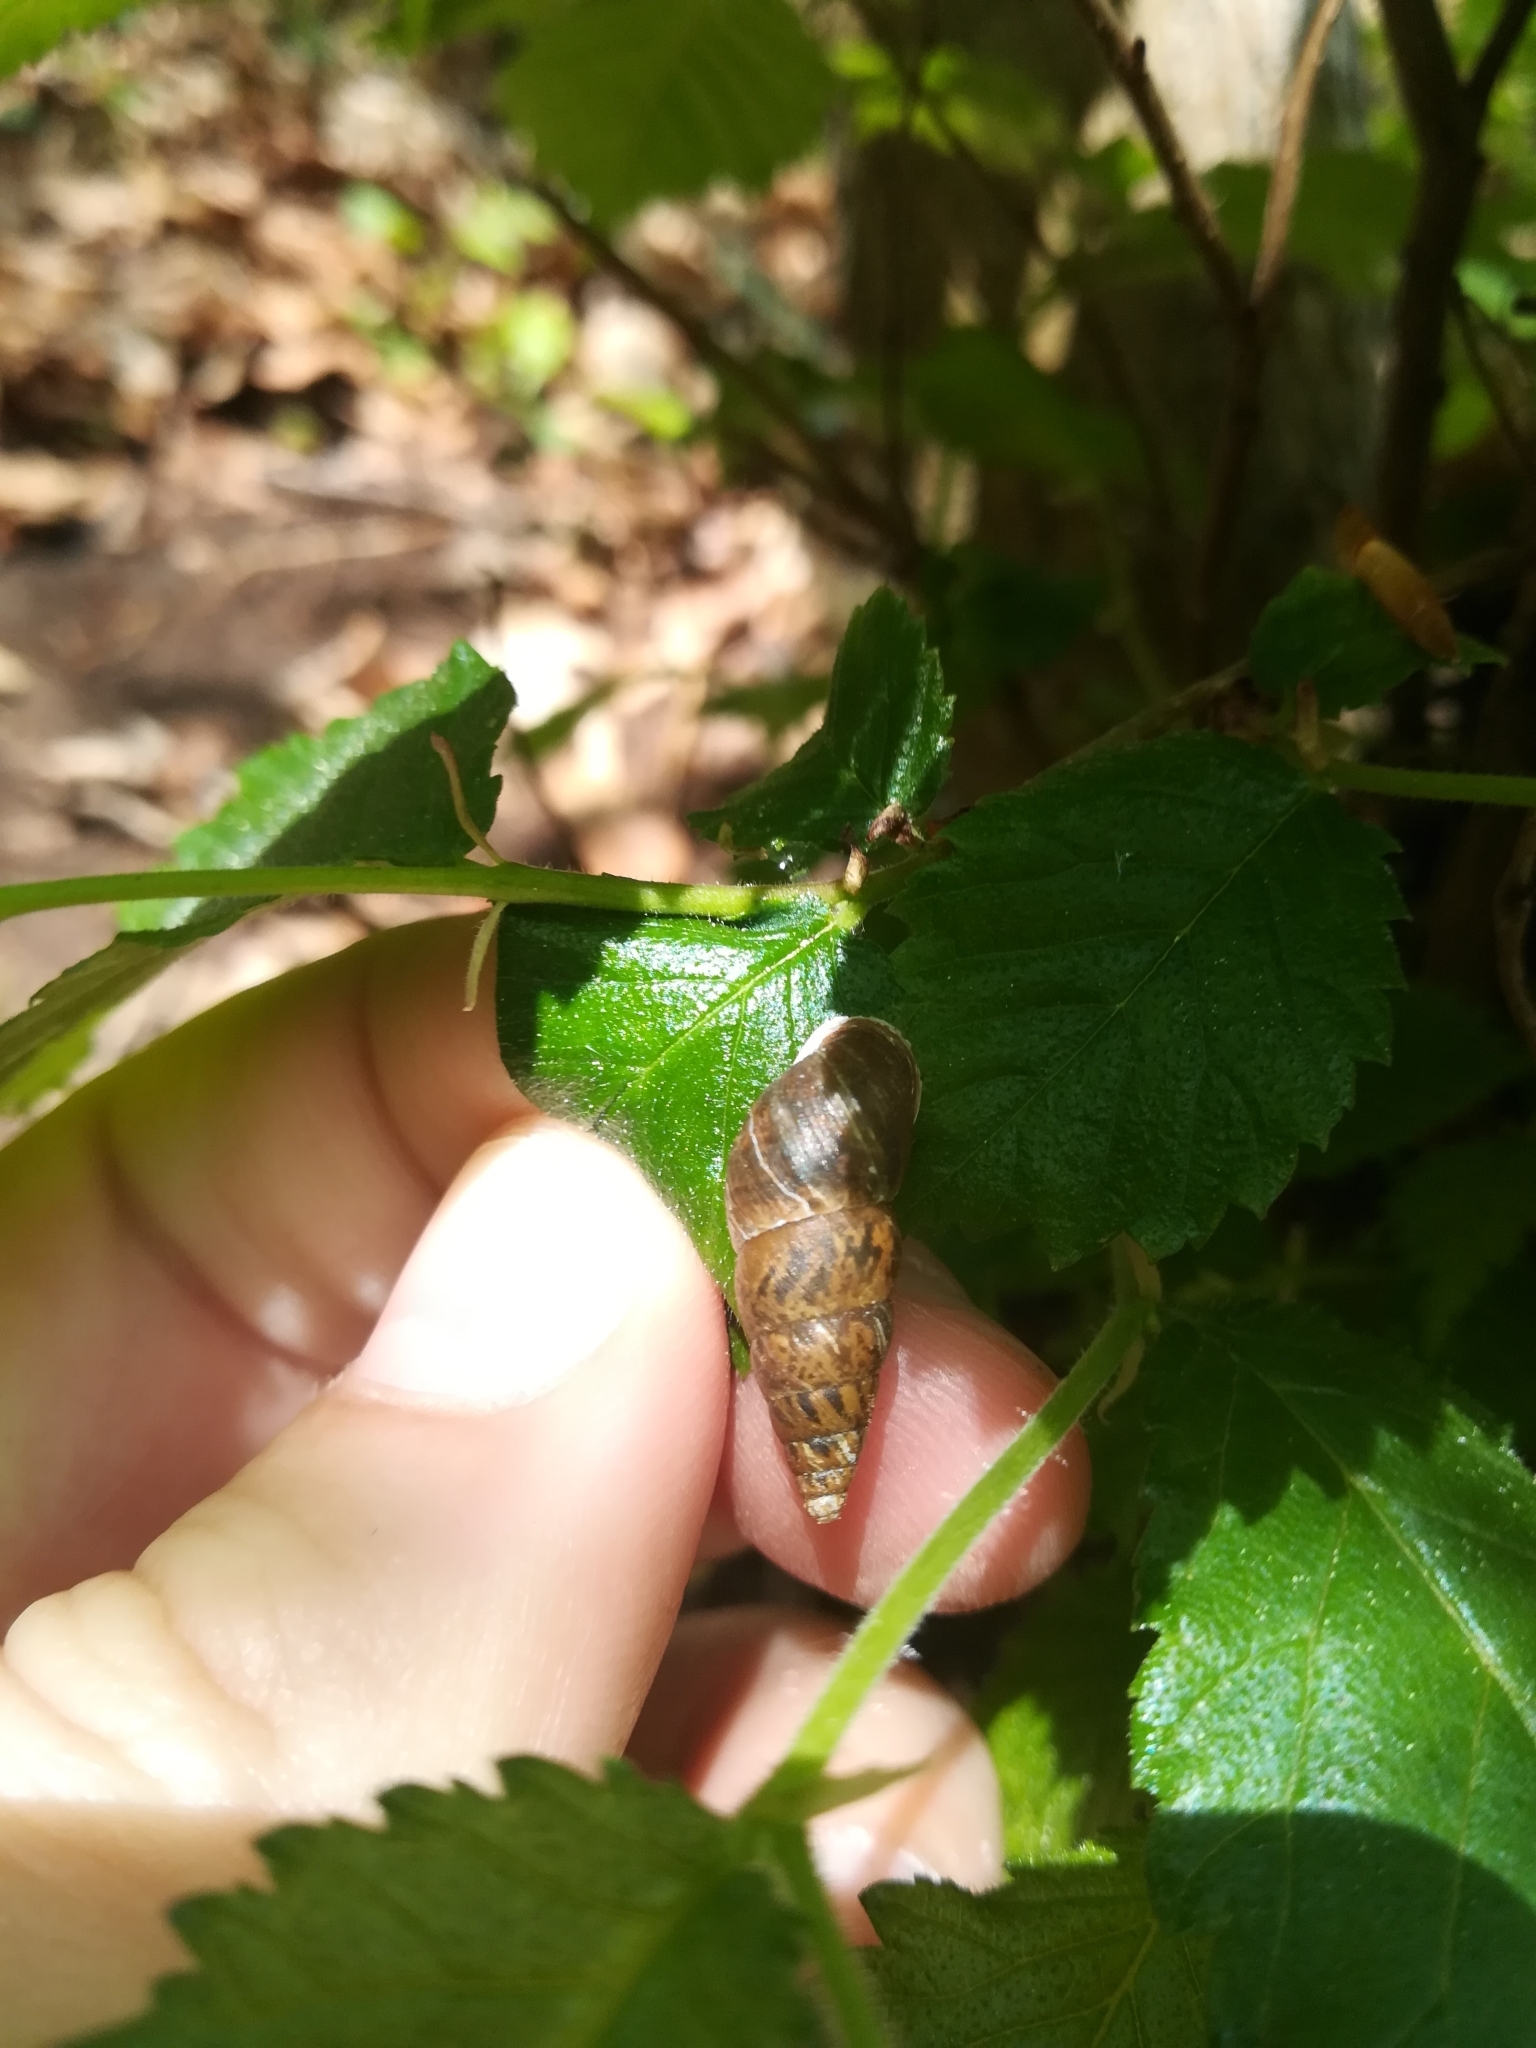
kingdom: Animalia
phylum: Mollusca
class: Gastropoda
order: Stylommatophora
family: Enidae
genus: Ena
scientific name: Ena montana
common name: Mountain bulin
